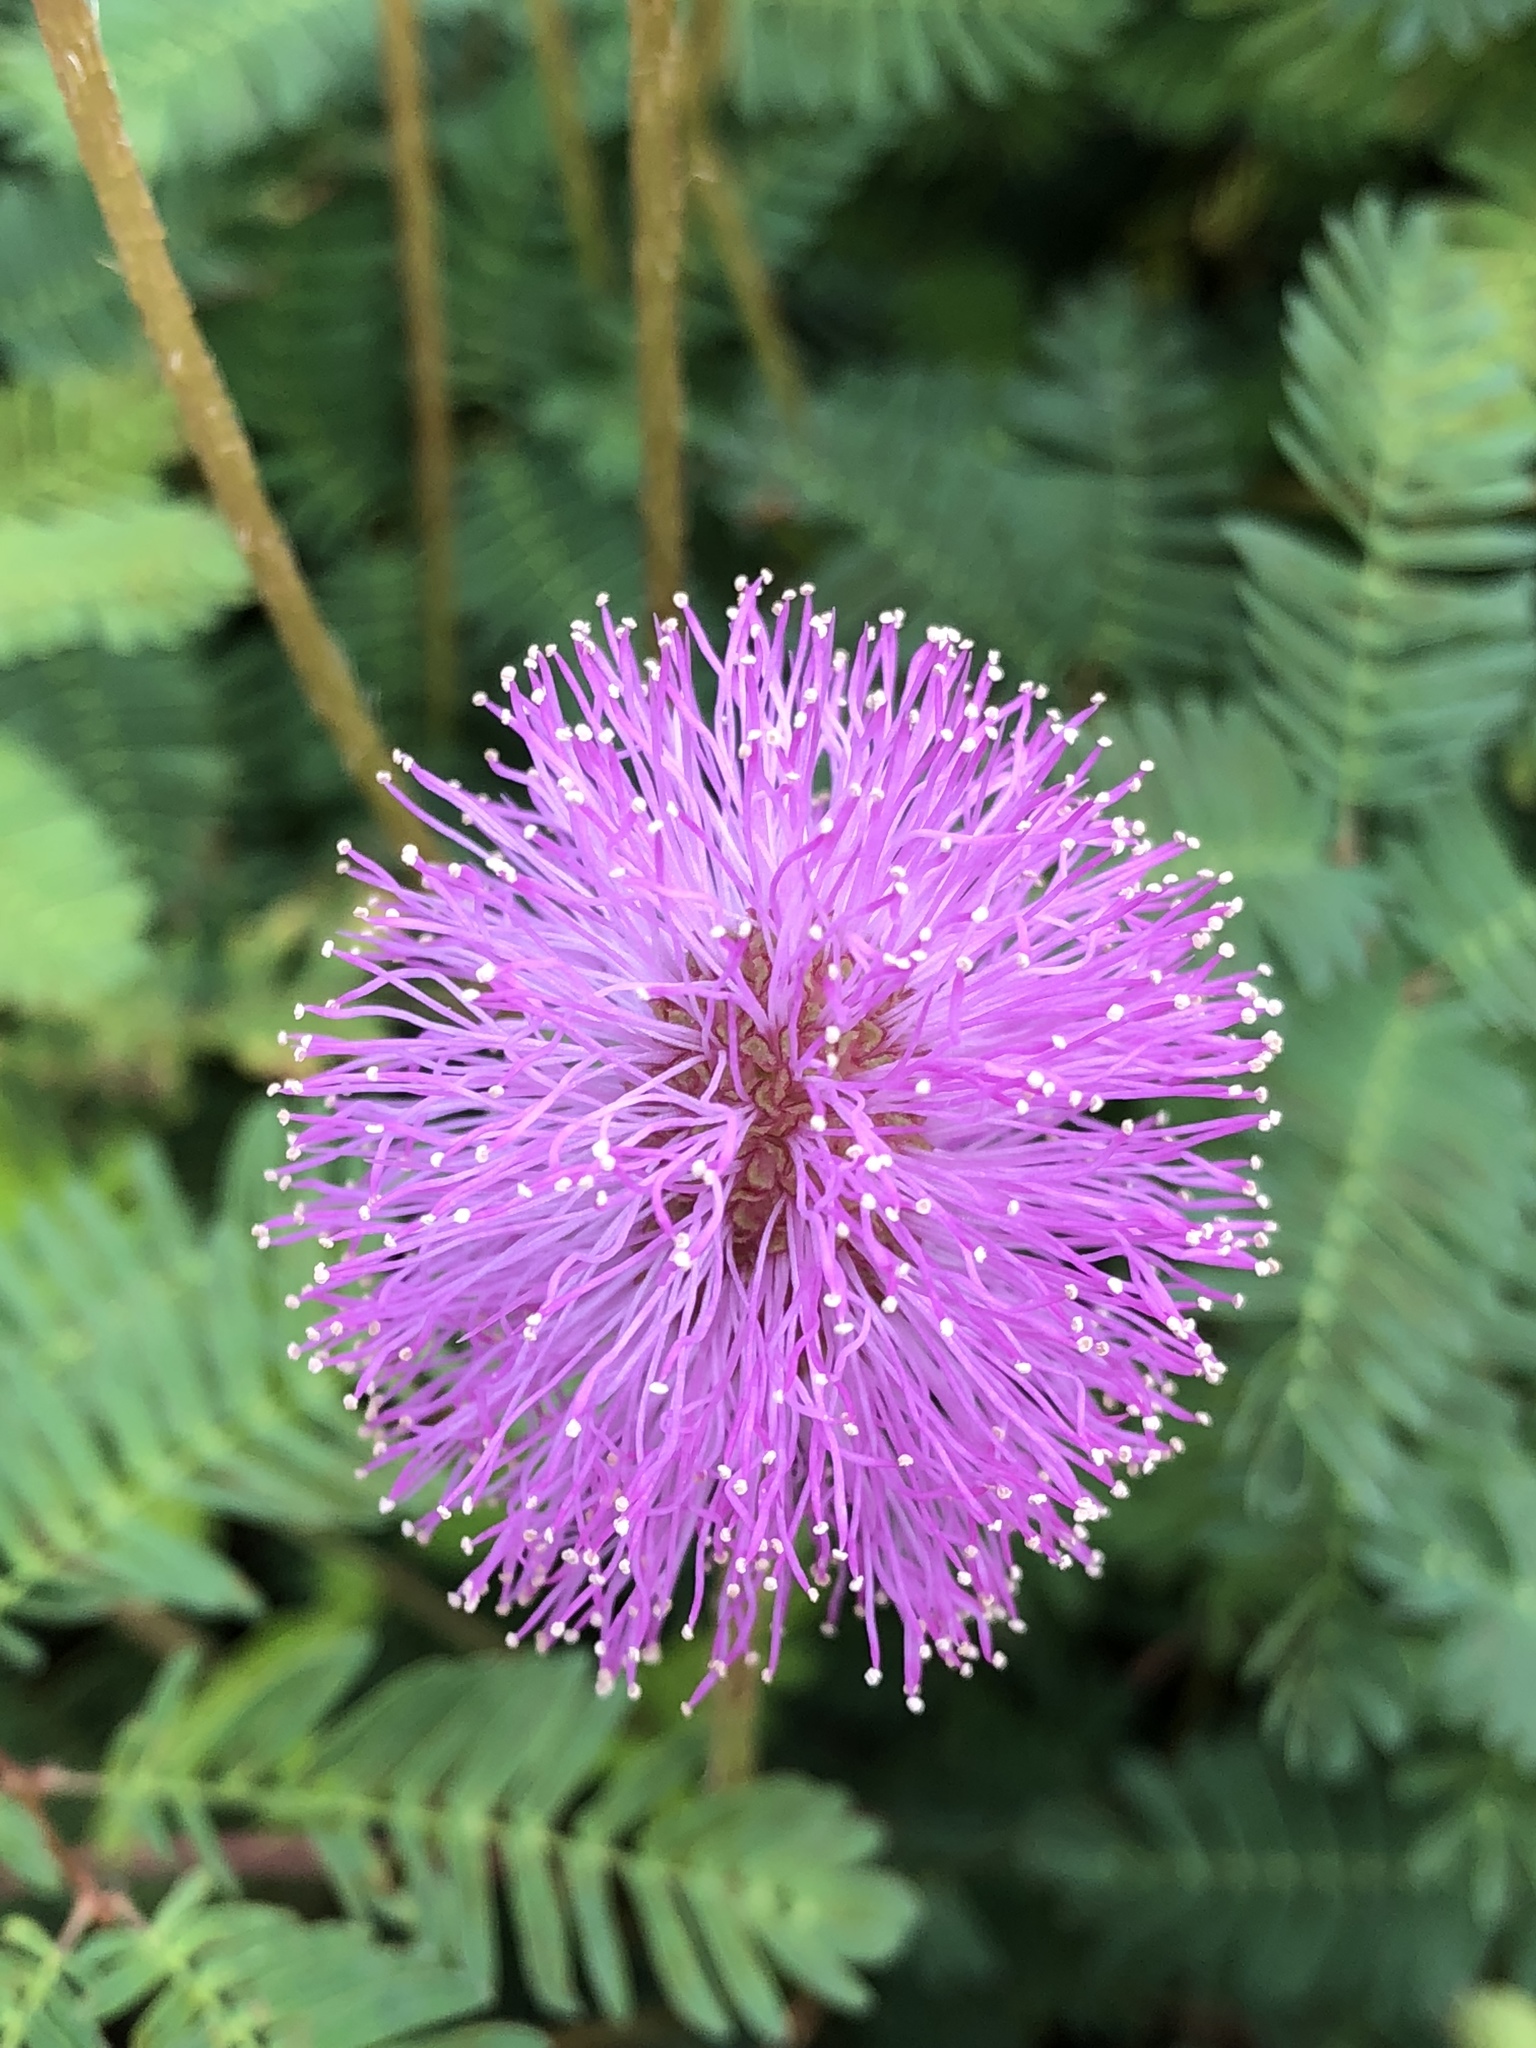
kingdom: Plantae
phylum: Tracheophyta
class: Magnoliopsida
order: Fabales
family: Fabaceae
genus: Mimosa
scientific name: Mimosa strigillosa
